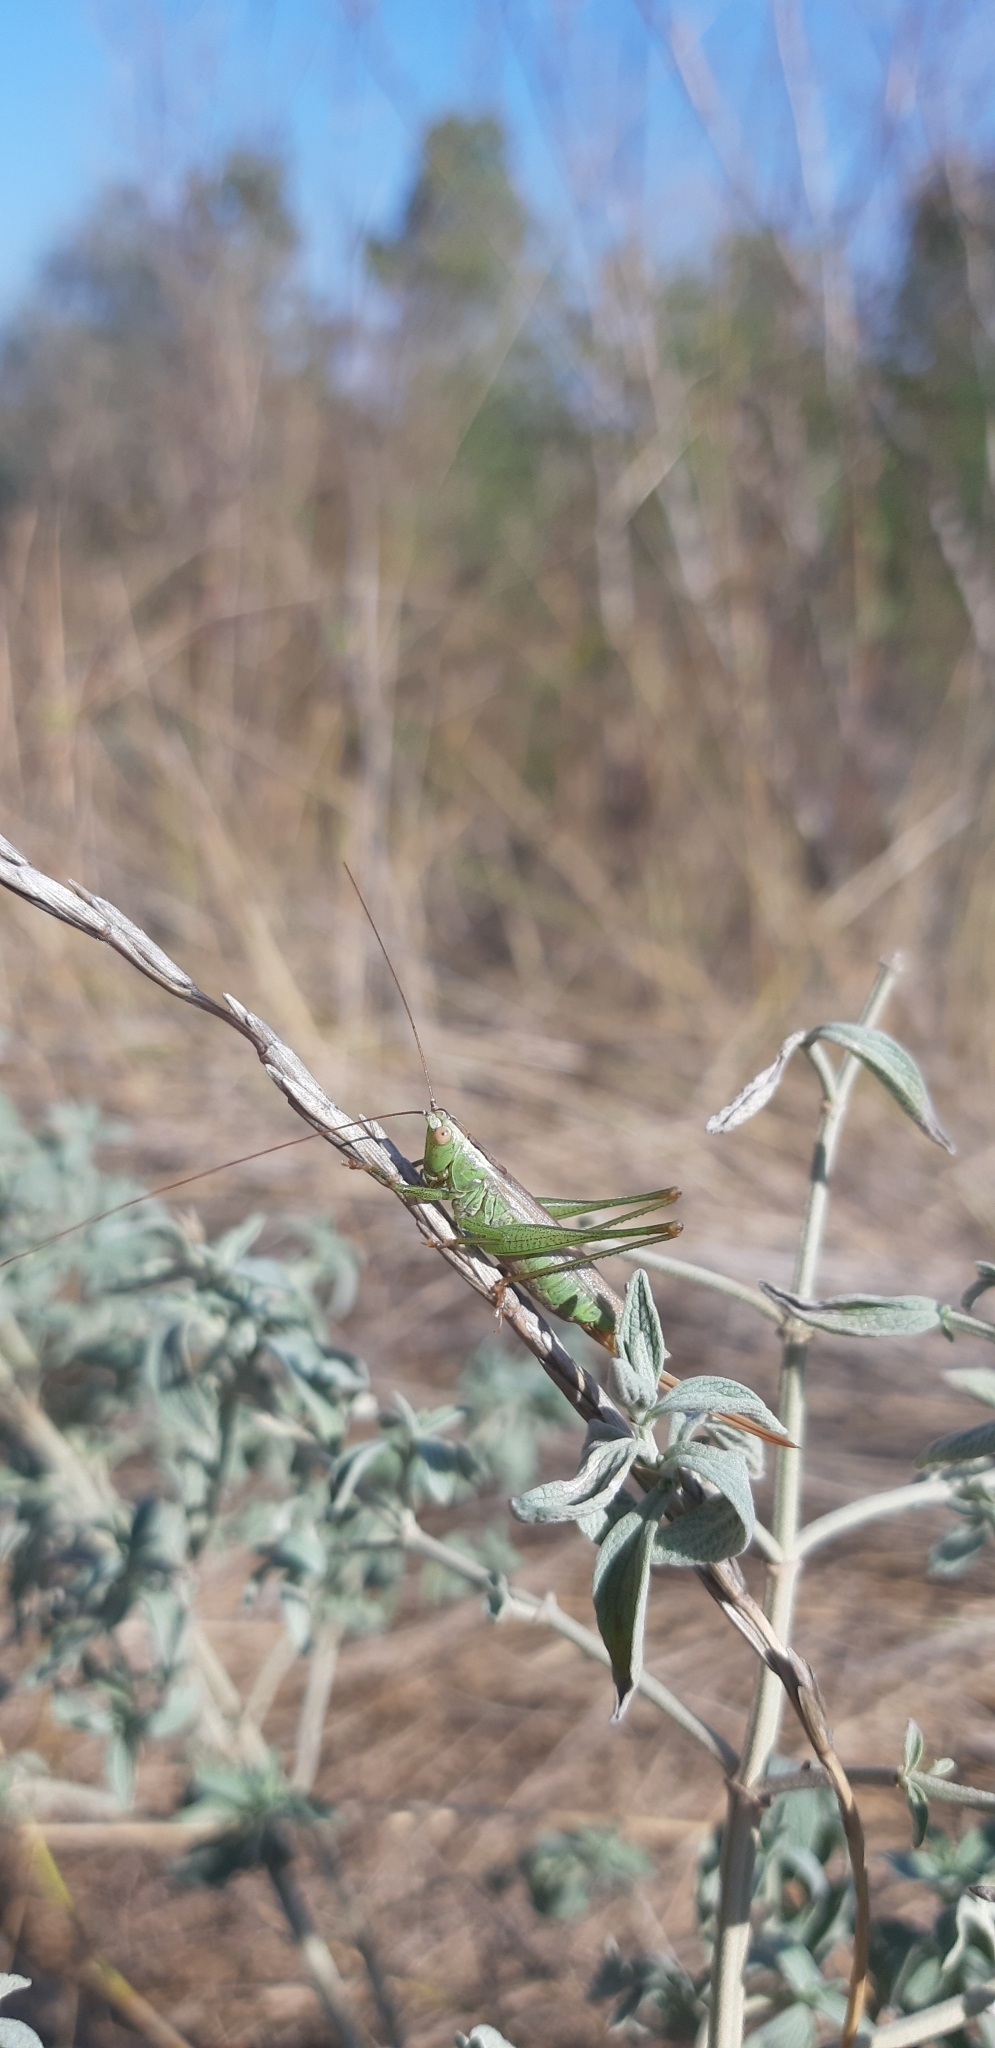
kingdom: Animalia
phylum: Arthropoda
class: Insecta
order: Orthoptera
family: Tettigoniidae
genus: Conocephalus
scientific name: Conocephalus fuscus
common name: Long-winged conehead
